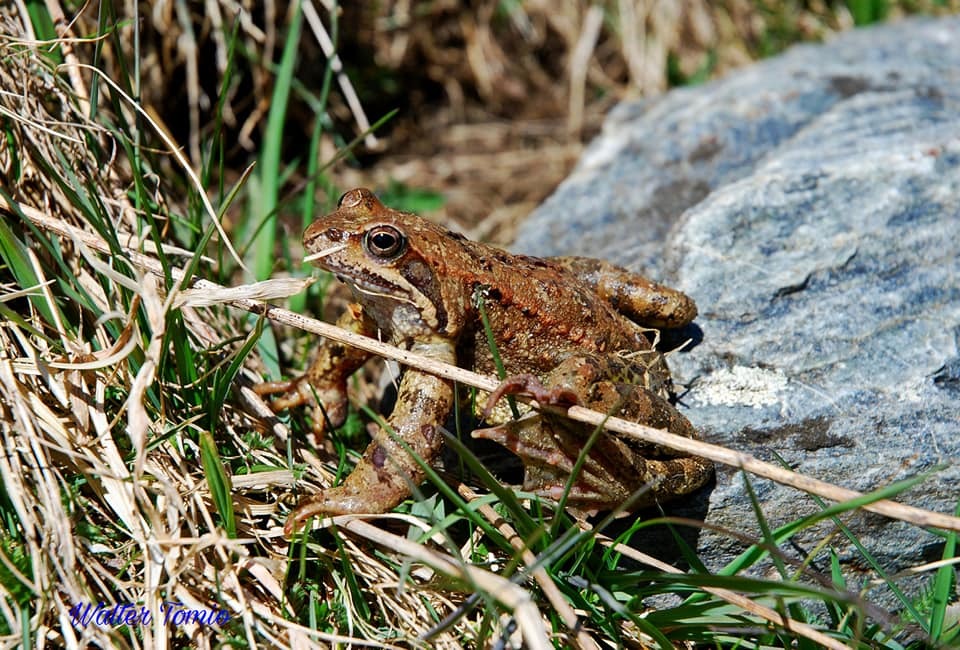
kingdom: Animalia
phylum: Chordata
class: Amphibia
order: Anura
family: Ranidae
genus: Rana
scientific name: Rana temporaria
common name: Common frog
